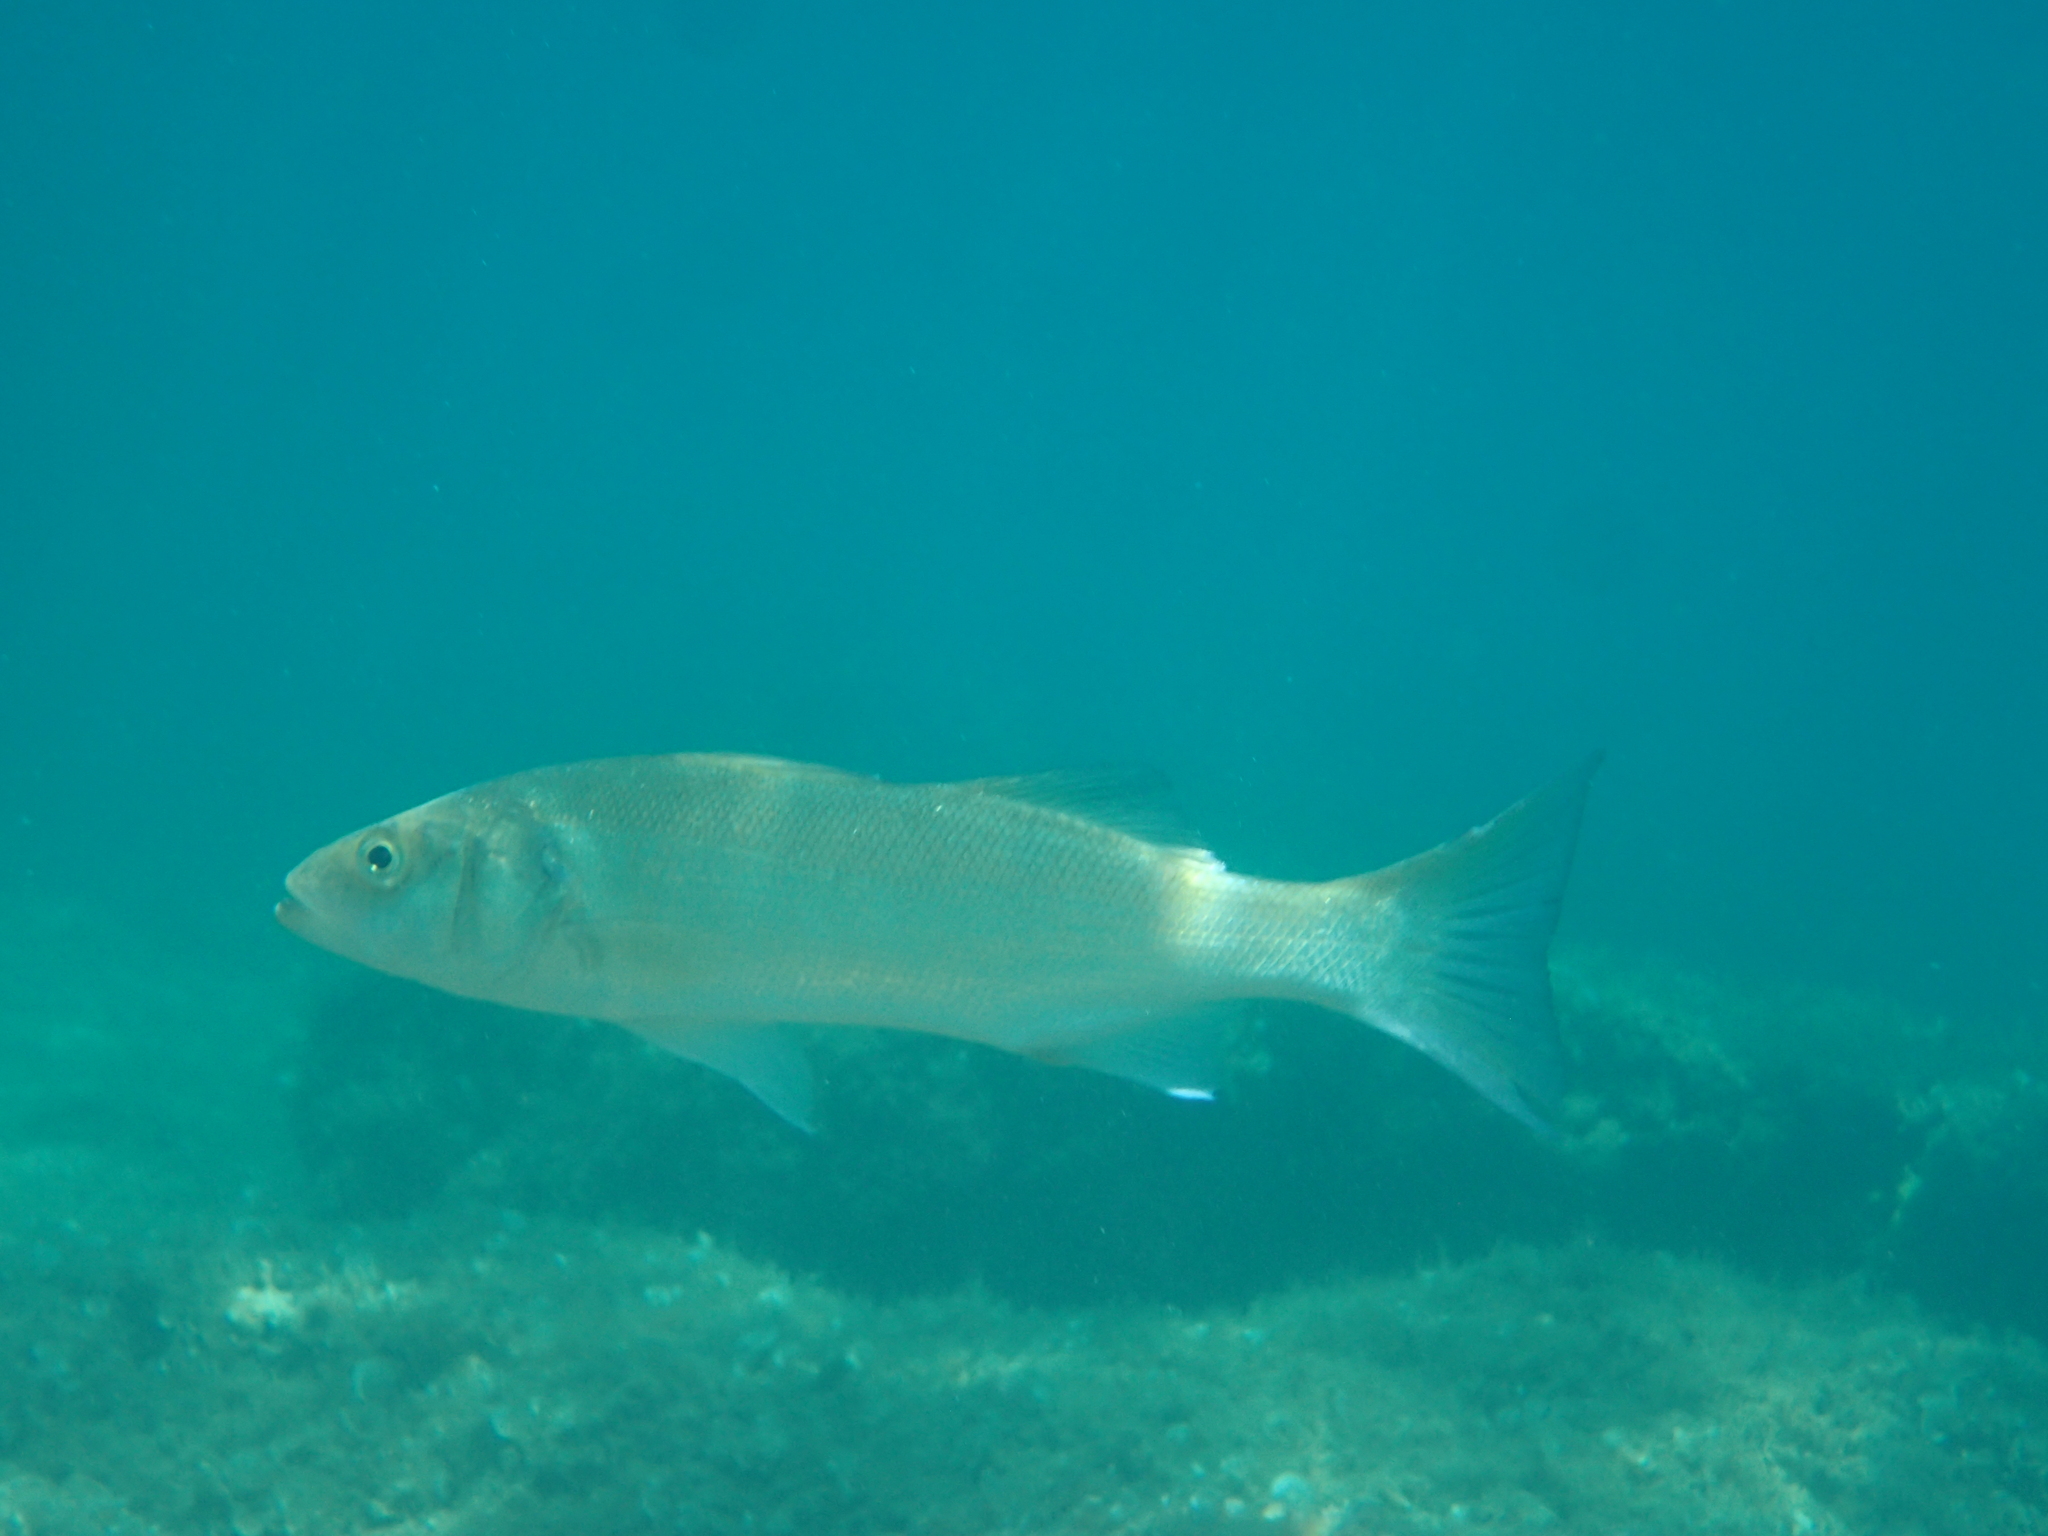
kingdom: Animalia
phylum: Chordata
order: Perciformes
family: Moronidae
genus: Dicentrarchus
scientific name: Dicentrarchus labrax
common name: European seabass
